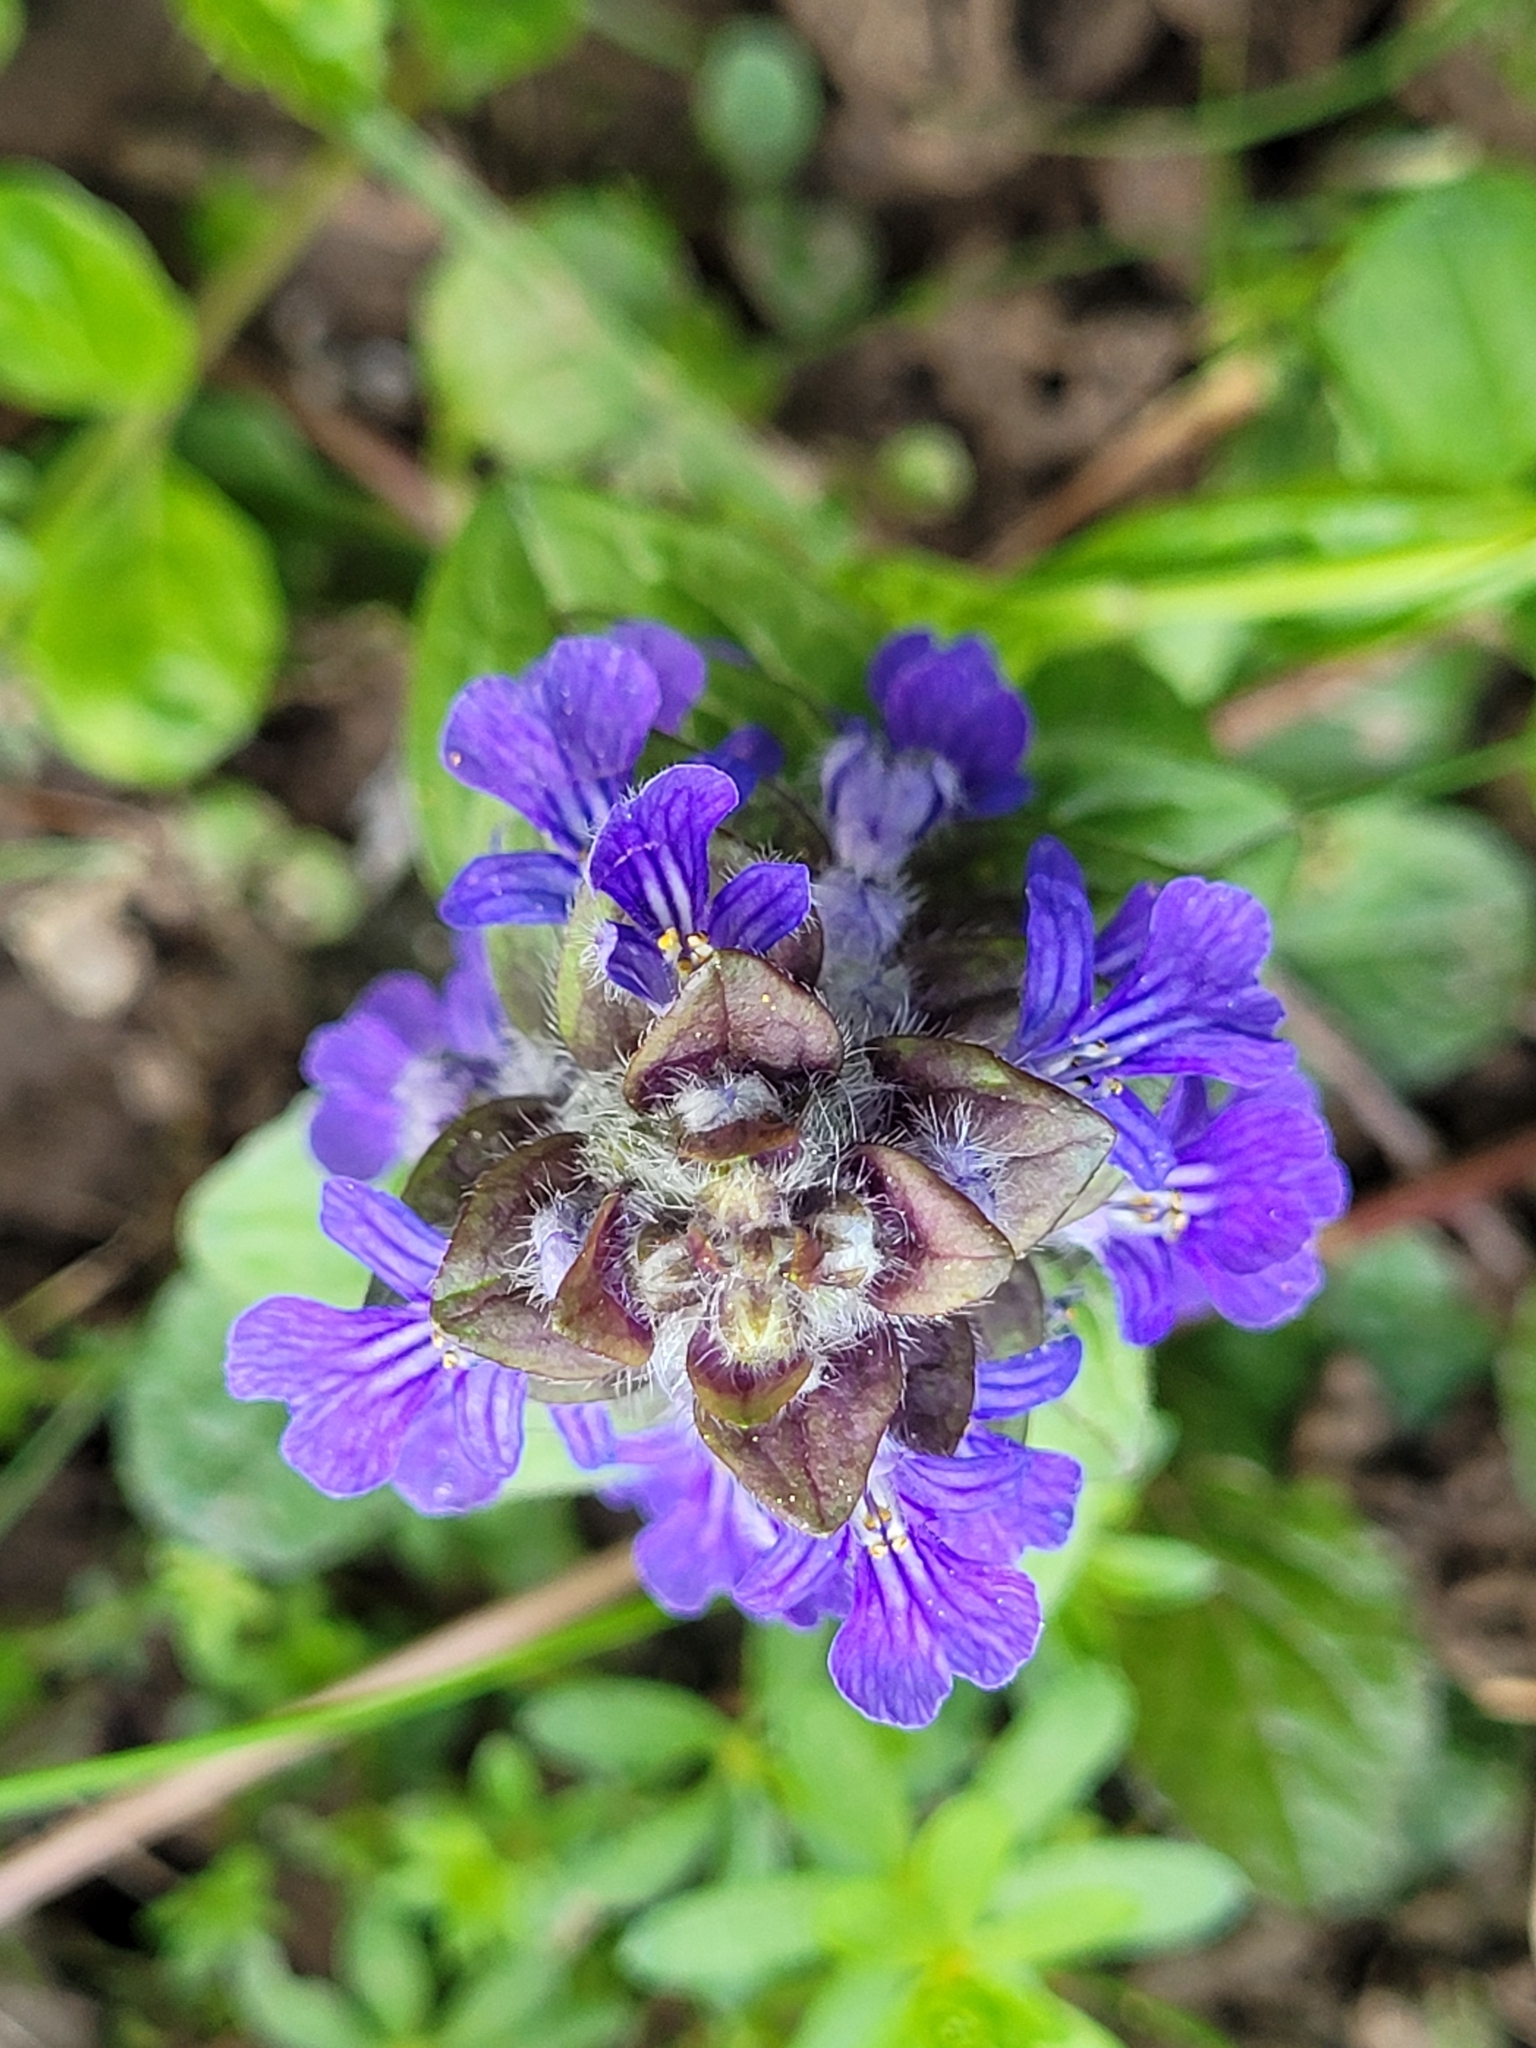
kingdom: Plantae
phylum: Tracheophyta
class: Magnoliopsida
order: Lamiales
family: Lamiaceae
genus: Ajuga
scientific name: Ajuga reptans
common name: Bugle
